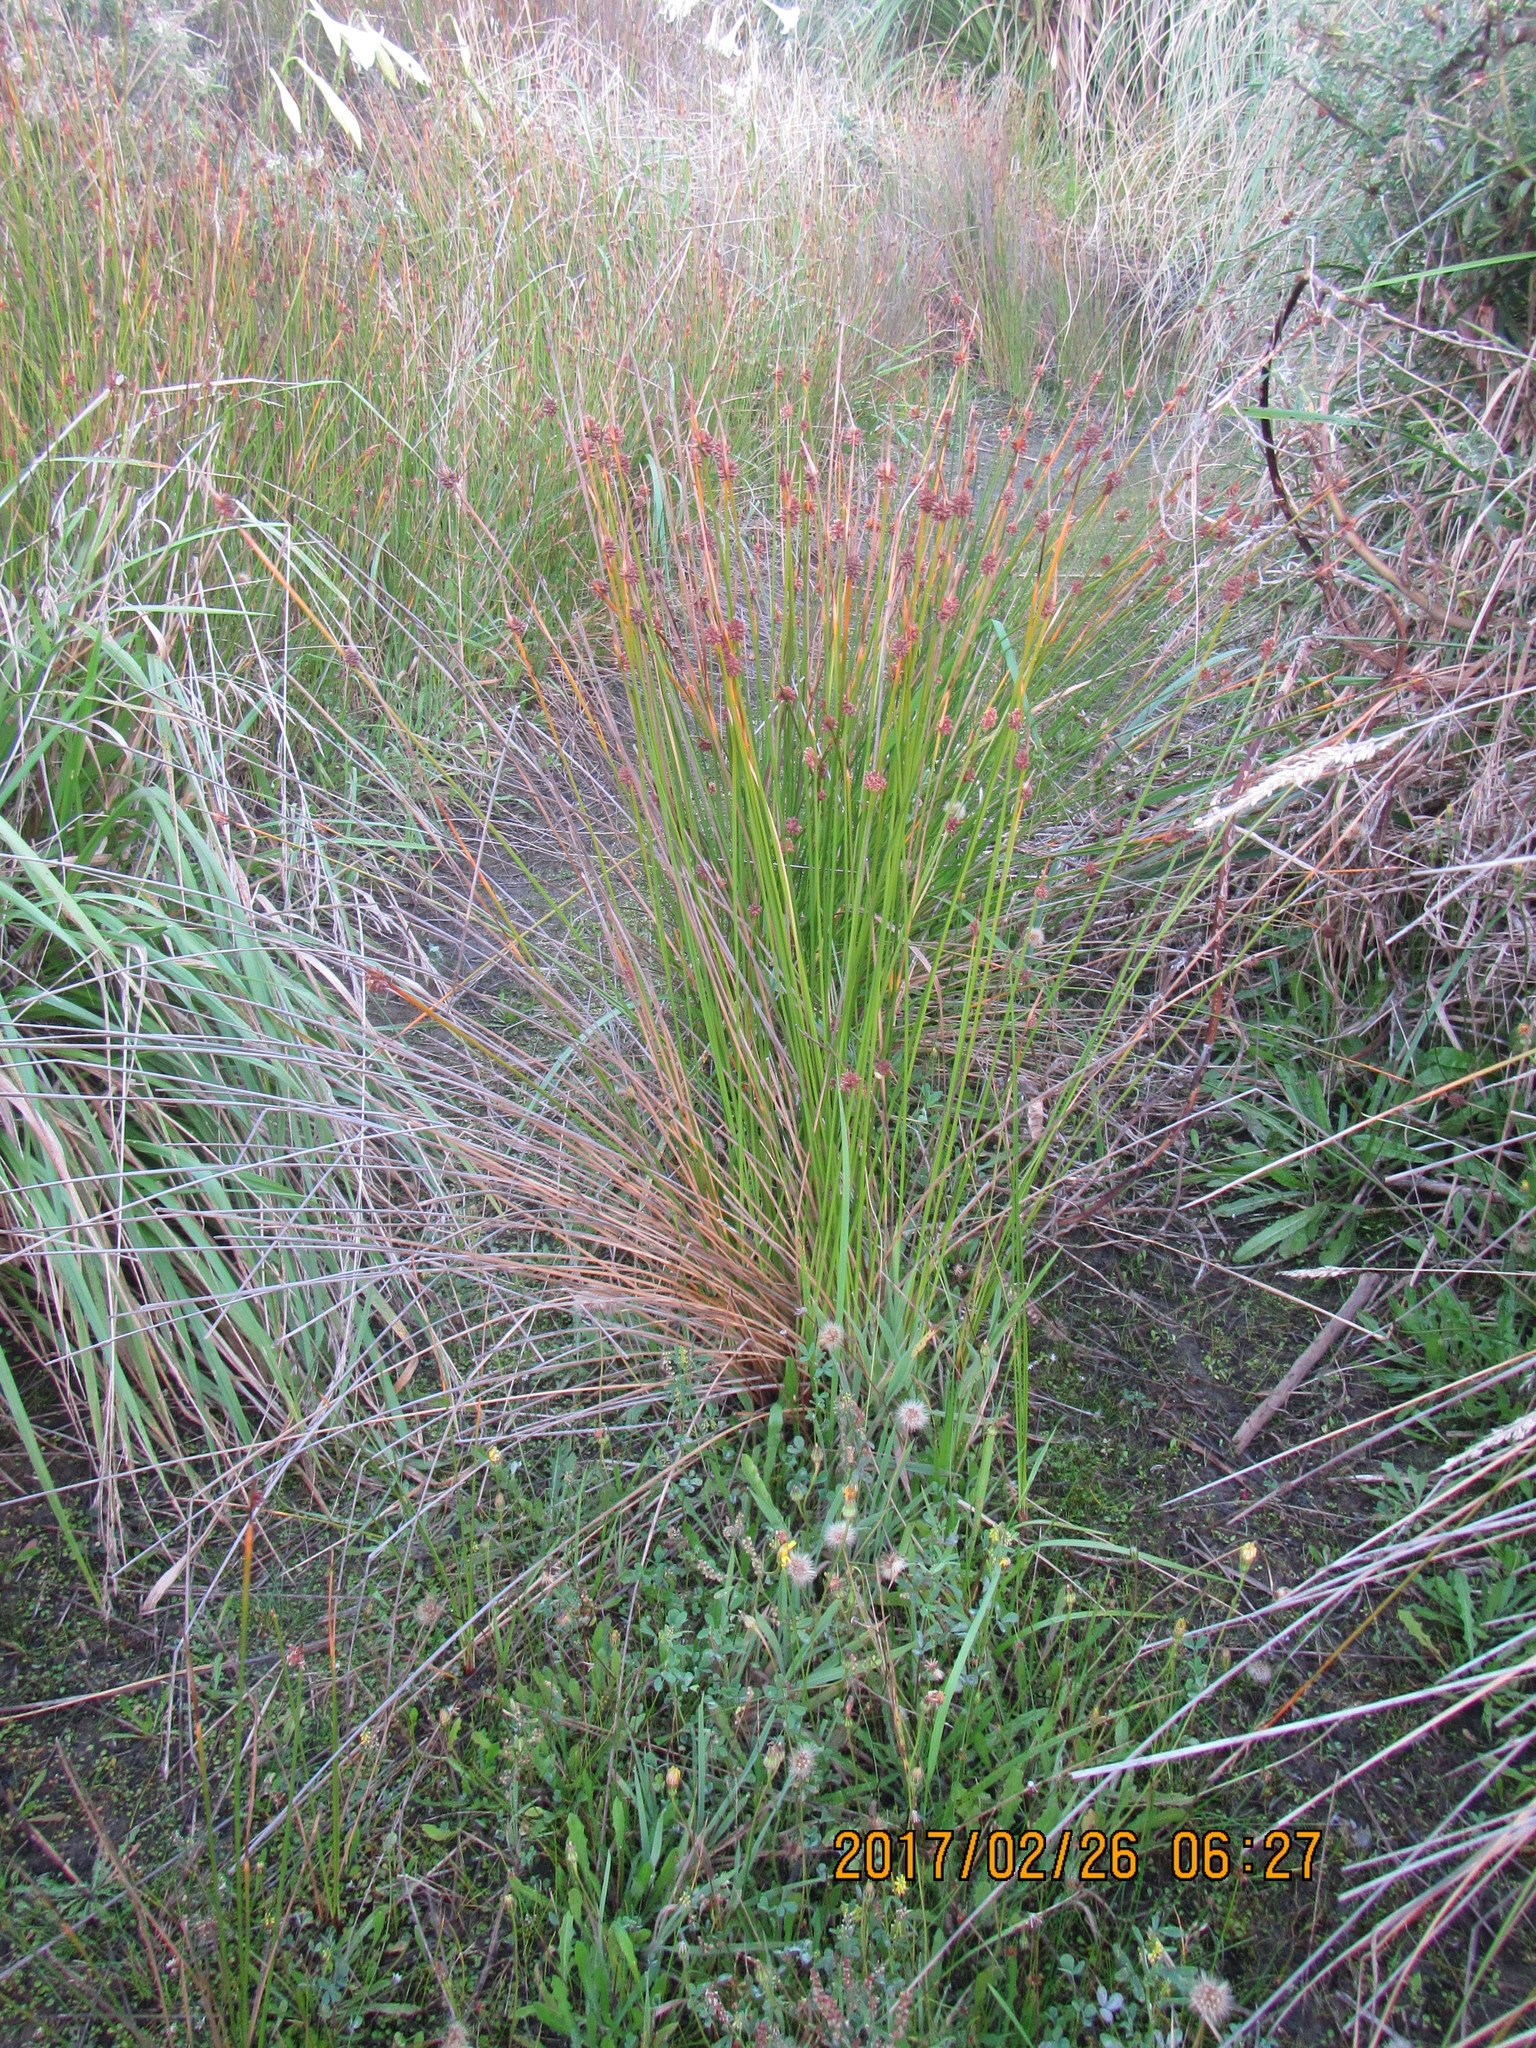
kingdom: Plantae
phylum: Tracheophyta
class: Liliopsida
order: Poales
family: Cyperaceae
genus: Ficinia
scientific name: Ficinia nodosa
